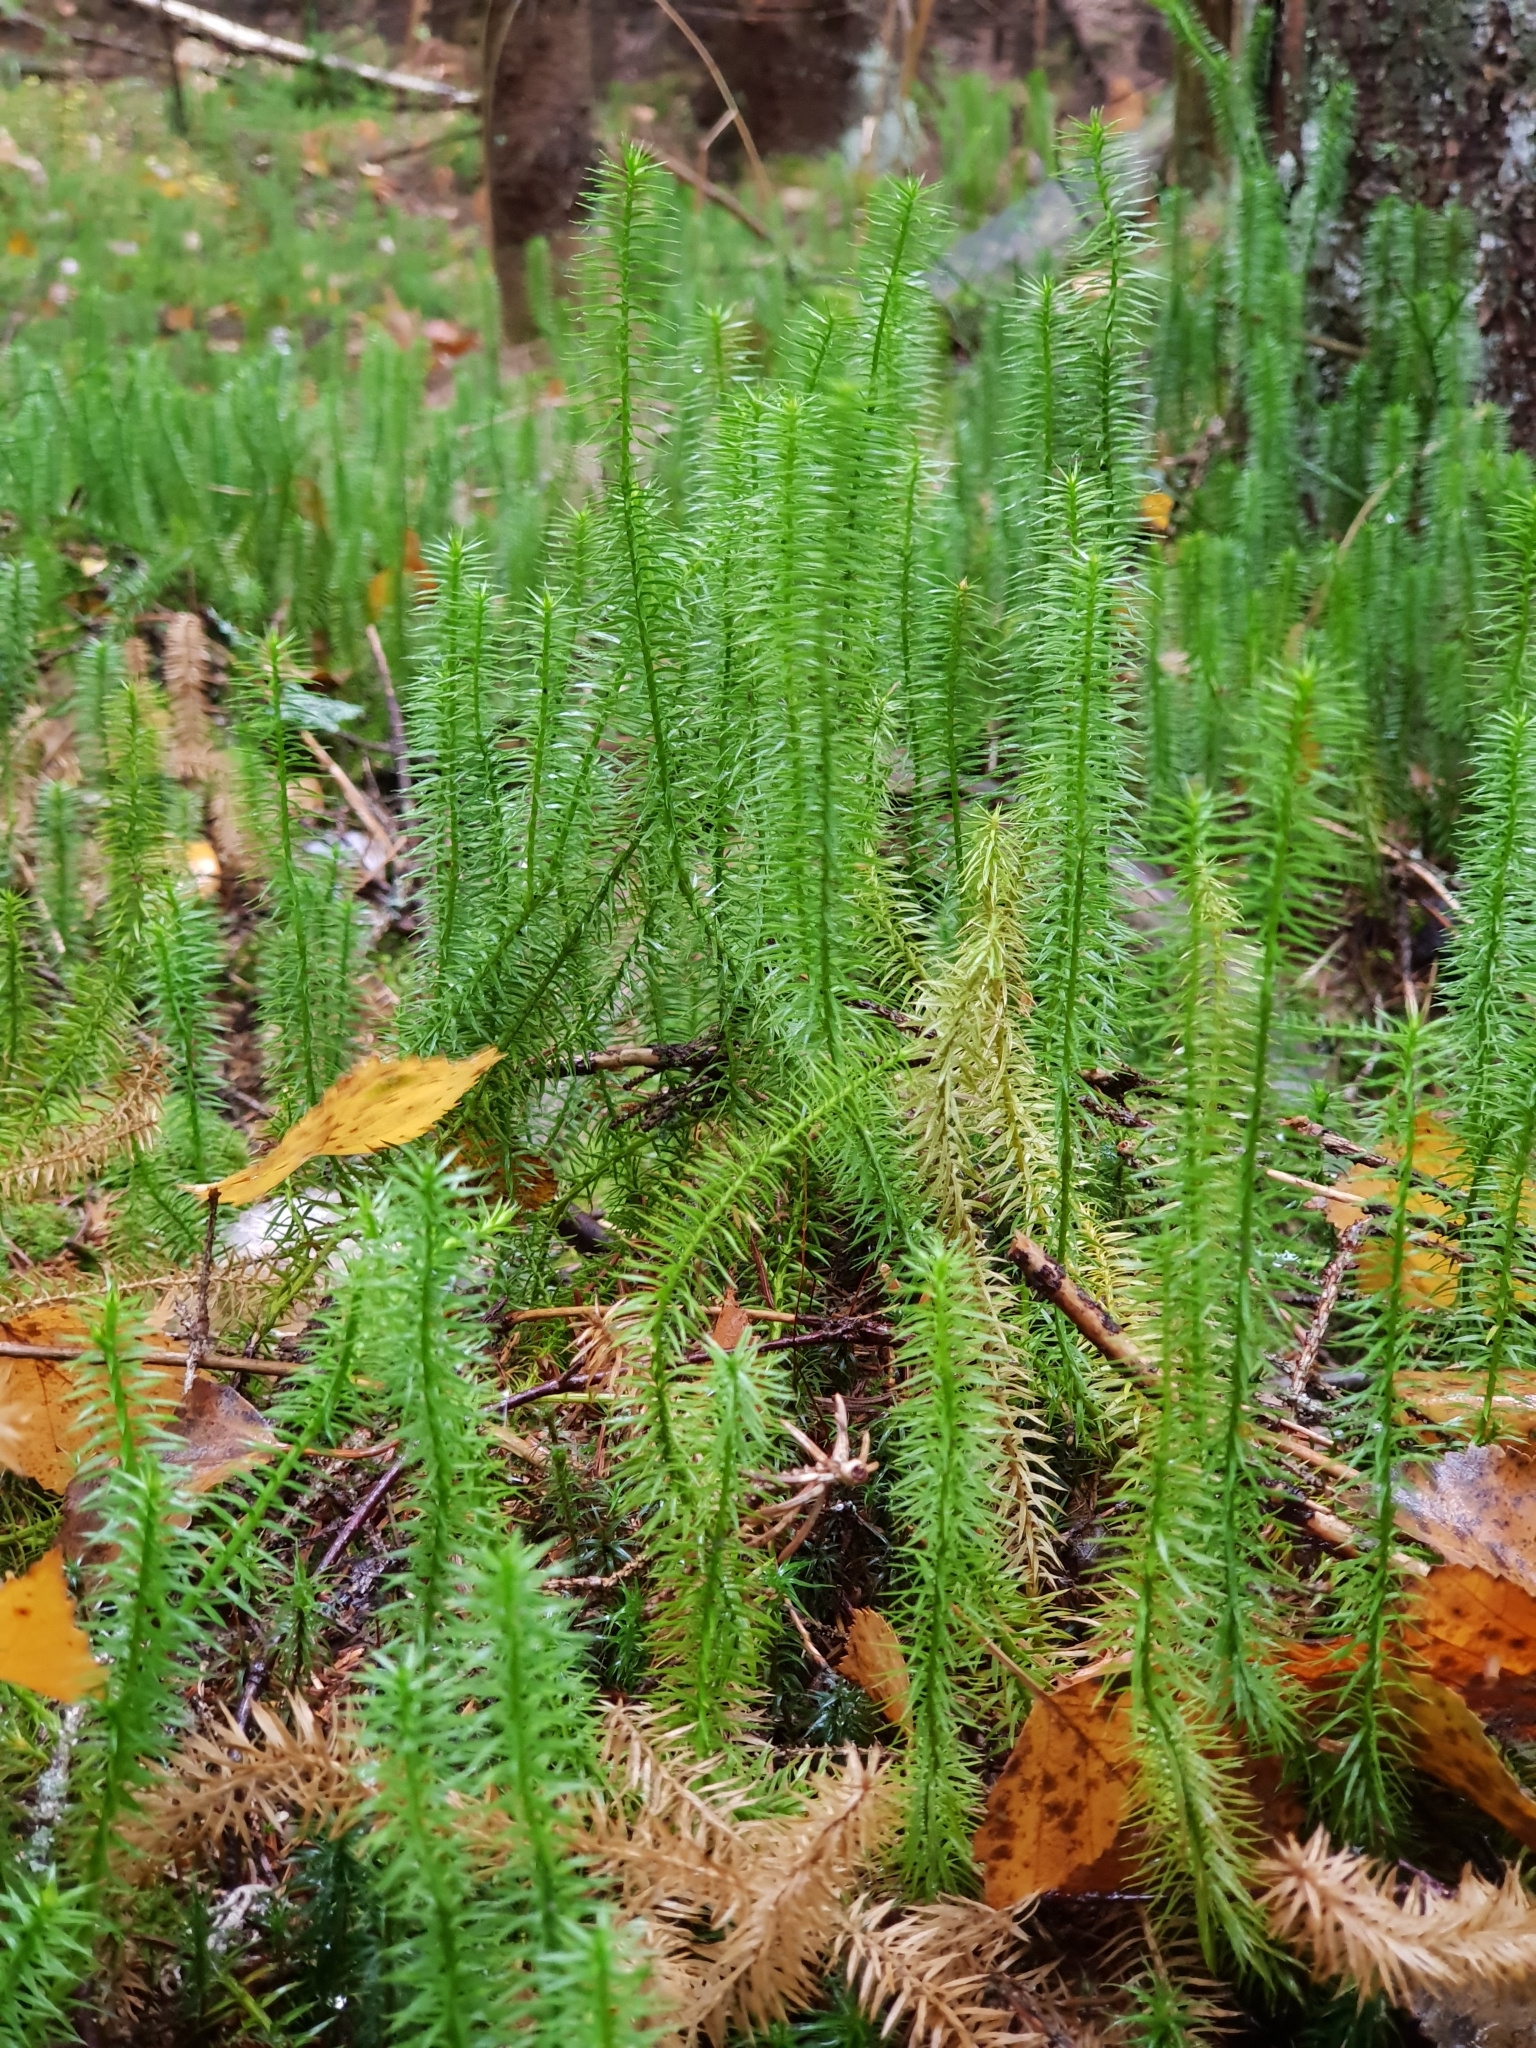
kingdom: Plantae
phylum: Tracheophyta
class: Lycopodiopsida
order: Lycopodiales
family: Lycopodiaceae
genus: Spinulum
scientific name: Spinulum annotinum
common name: Interrupted club-moss
